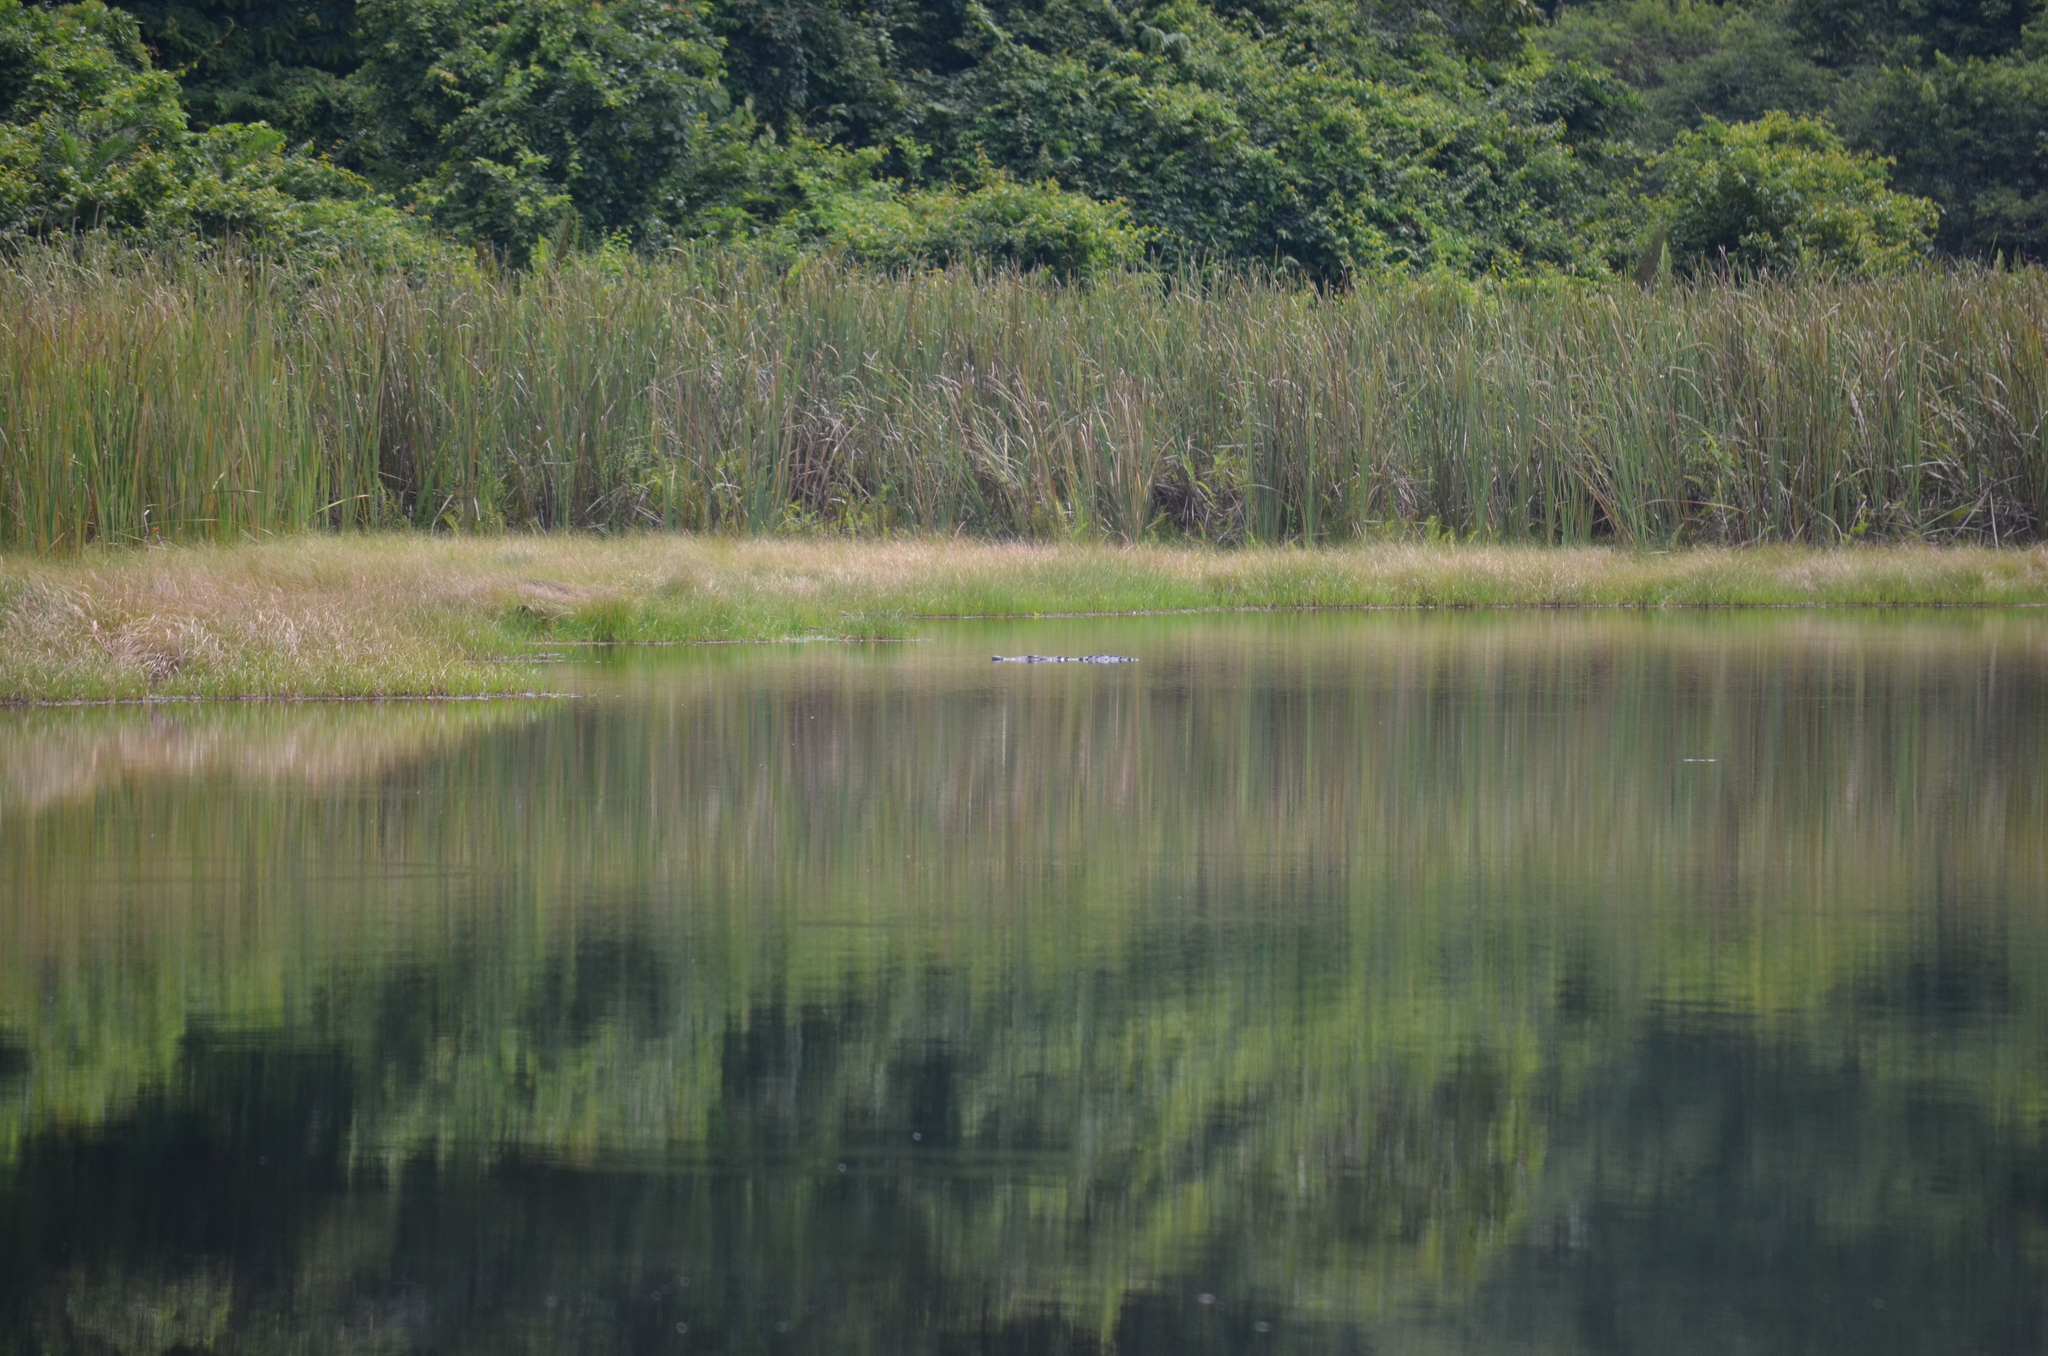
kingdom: Animalia
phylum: Chordata
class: Crocodylia
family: Crocodylidae
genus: Crocodylus
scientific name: Crocodylus acutus
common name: American crocodile
